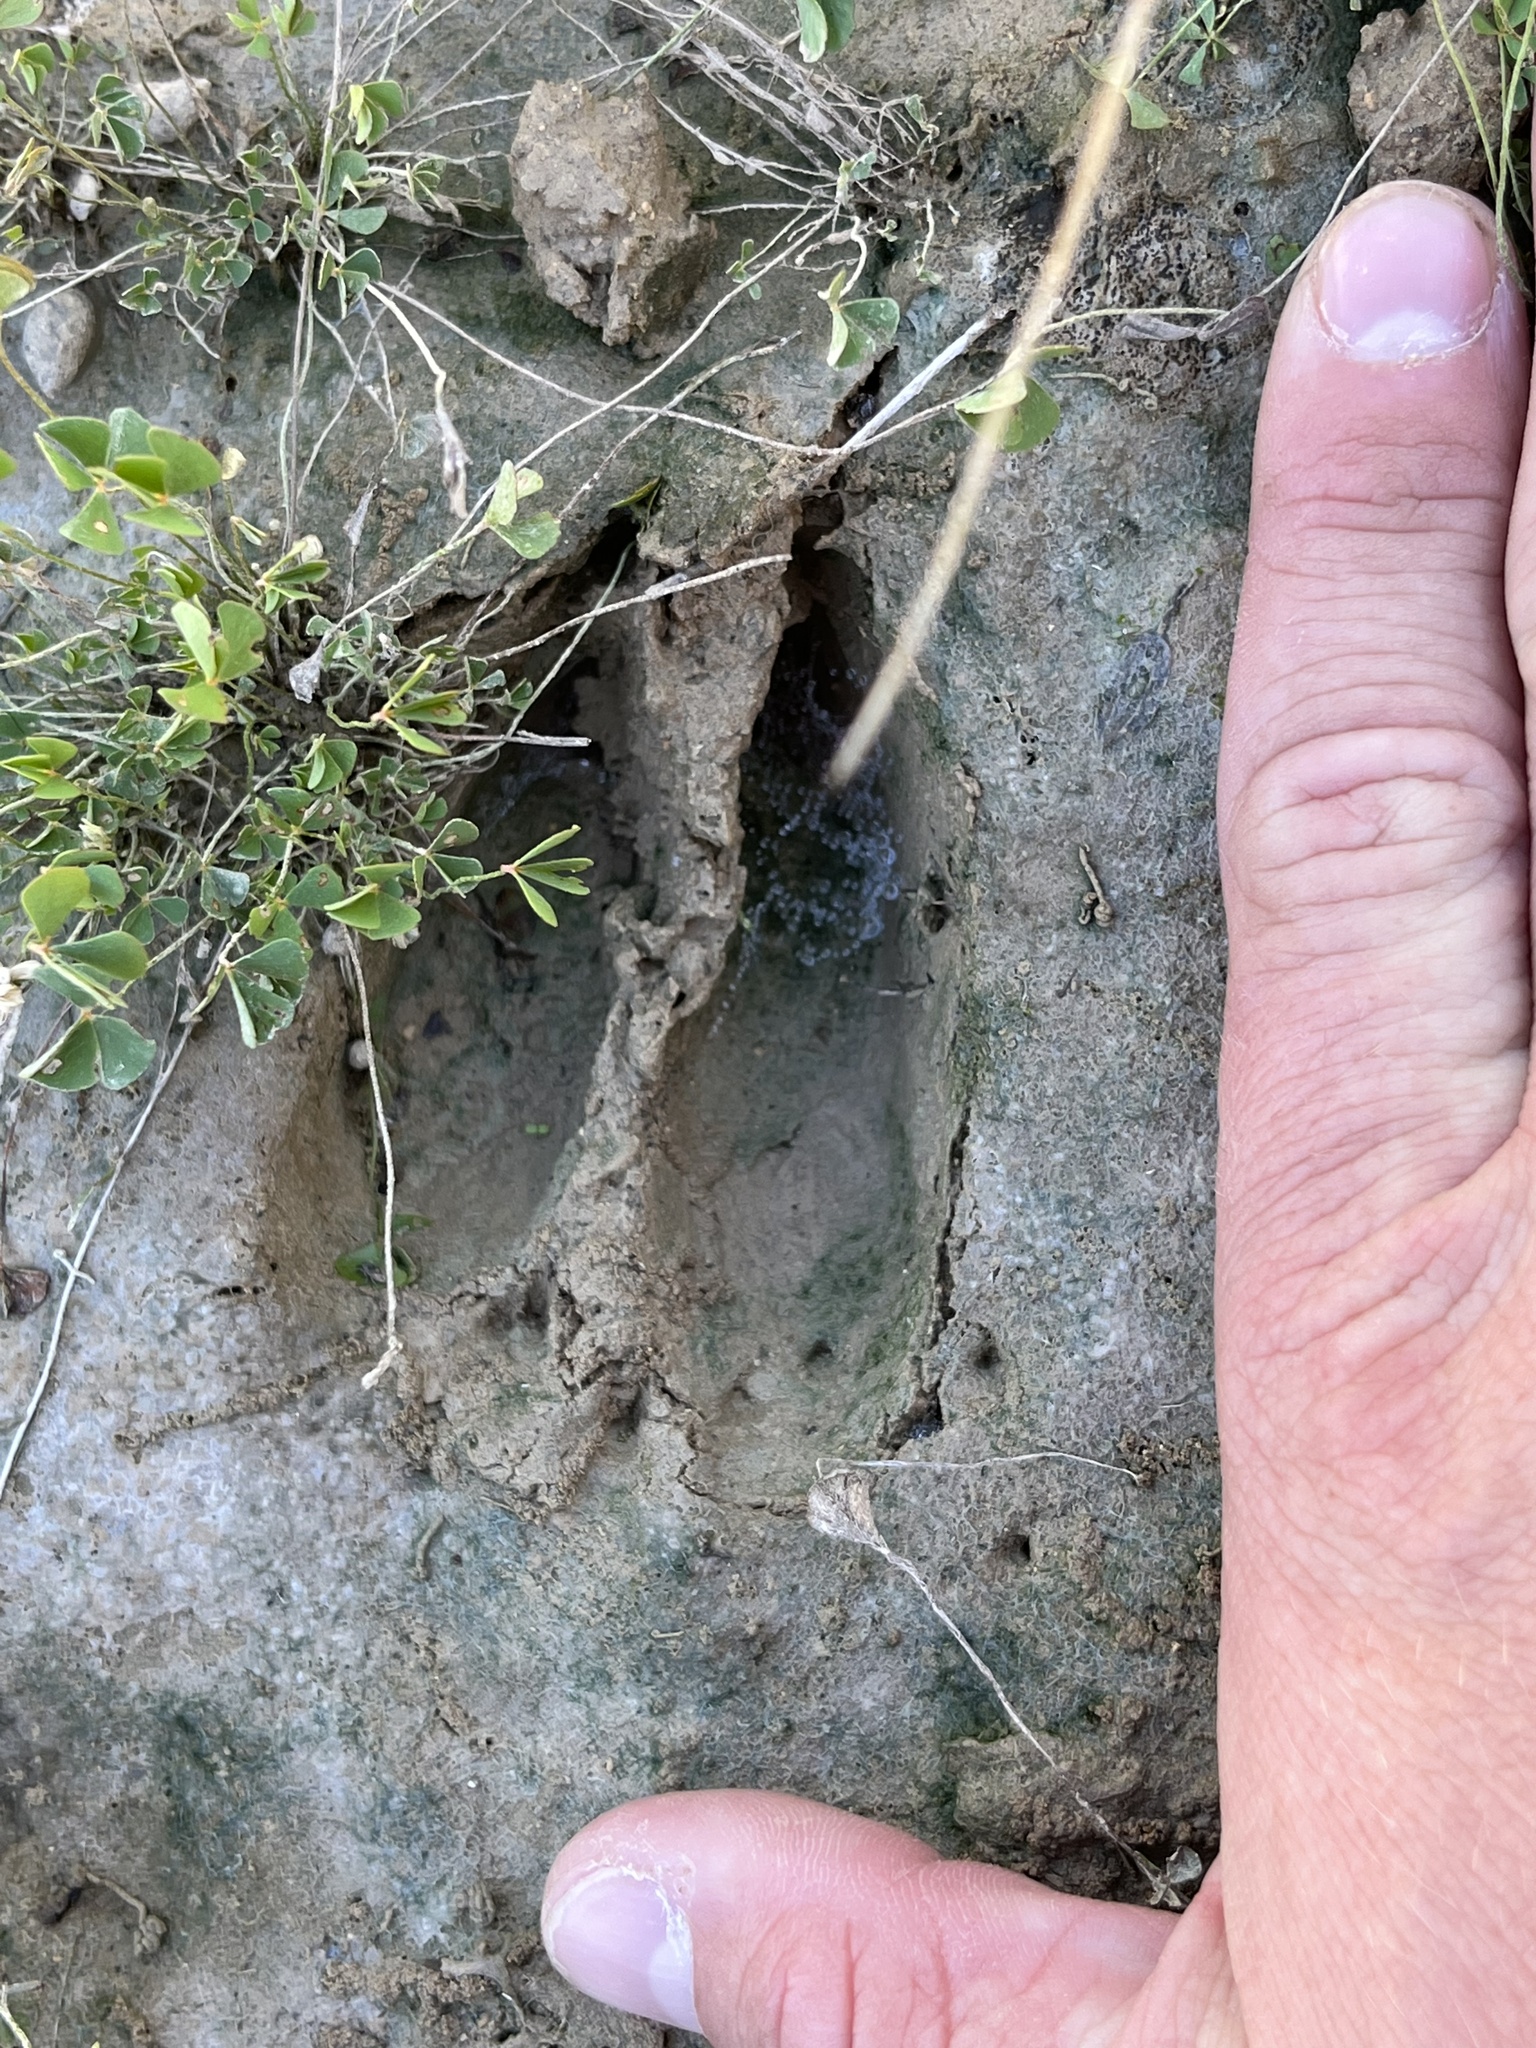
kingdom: Animalia
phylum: Chordata
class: Mammalia
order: Artiodactyla
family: Cervidae
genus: Odocoileus
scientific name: Odocoileus virginianus
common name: White-tailed deer
